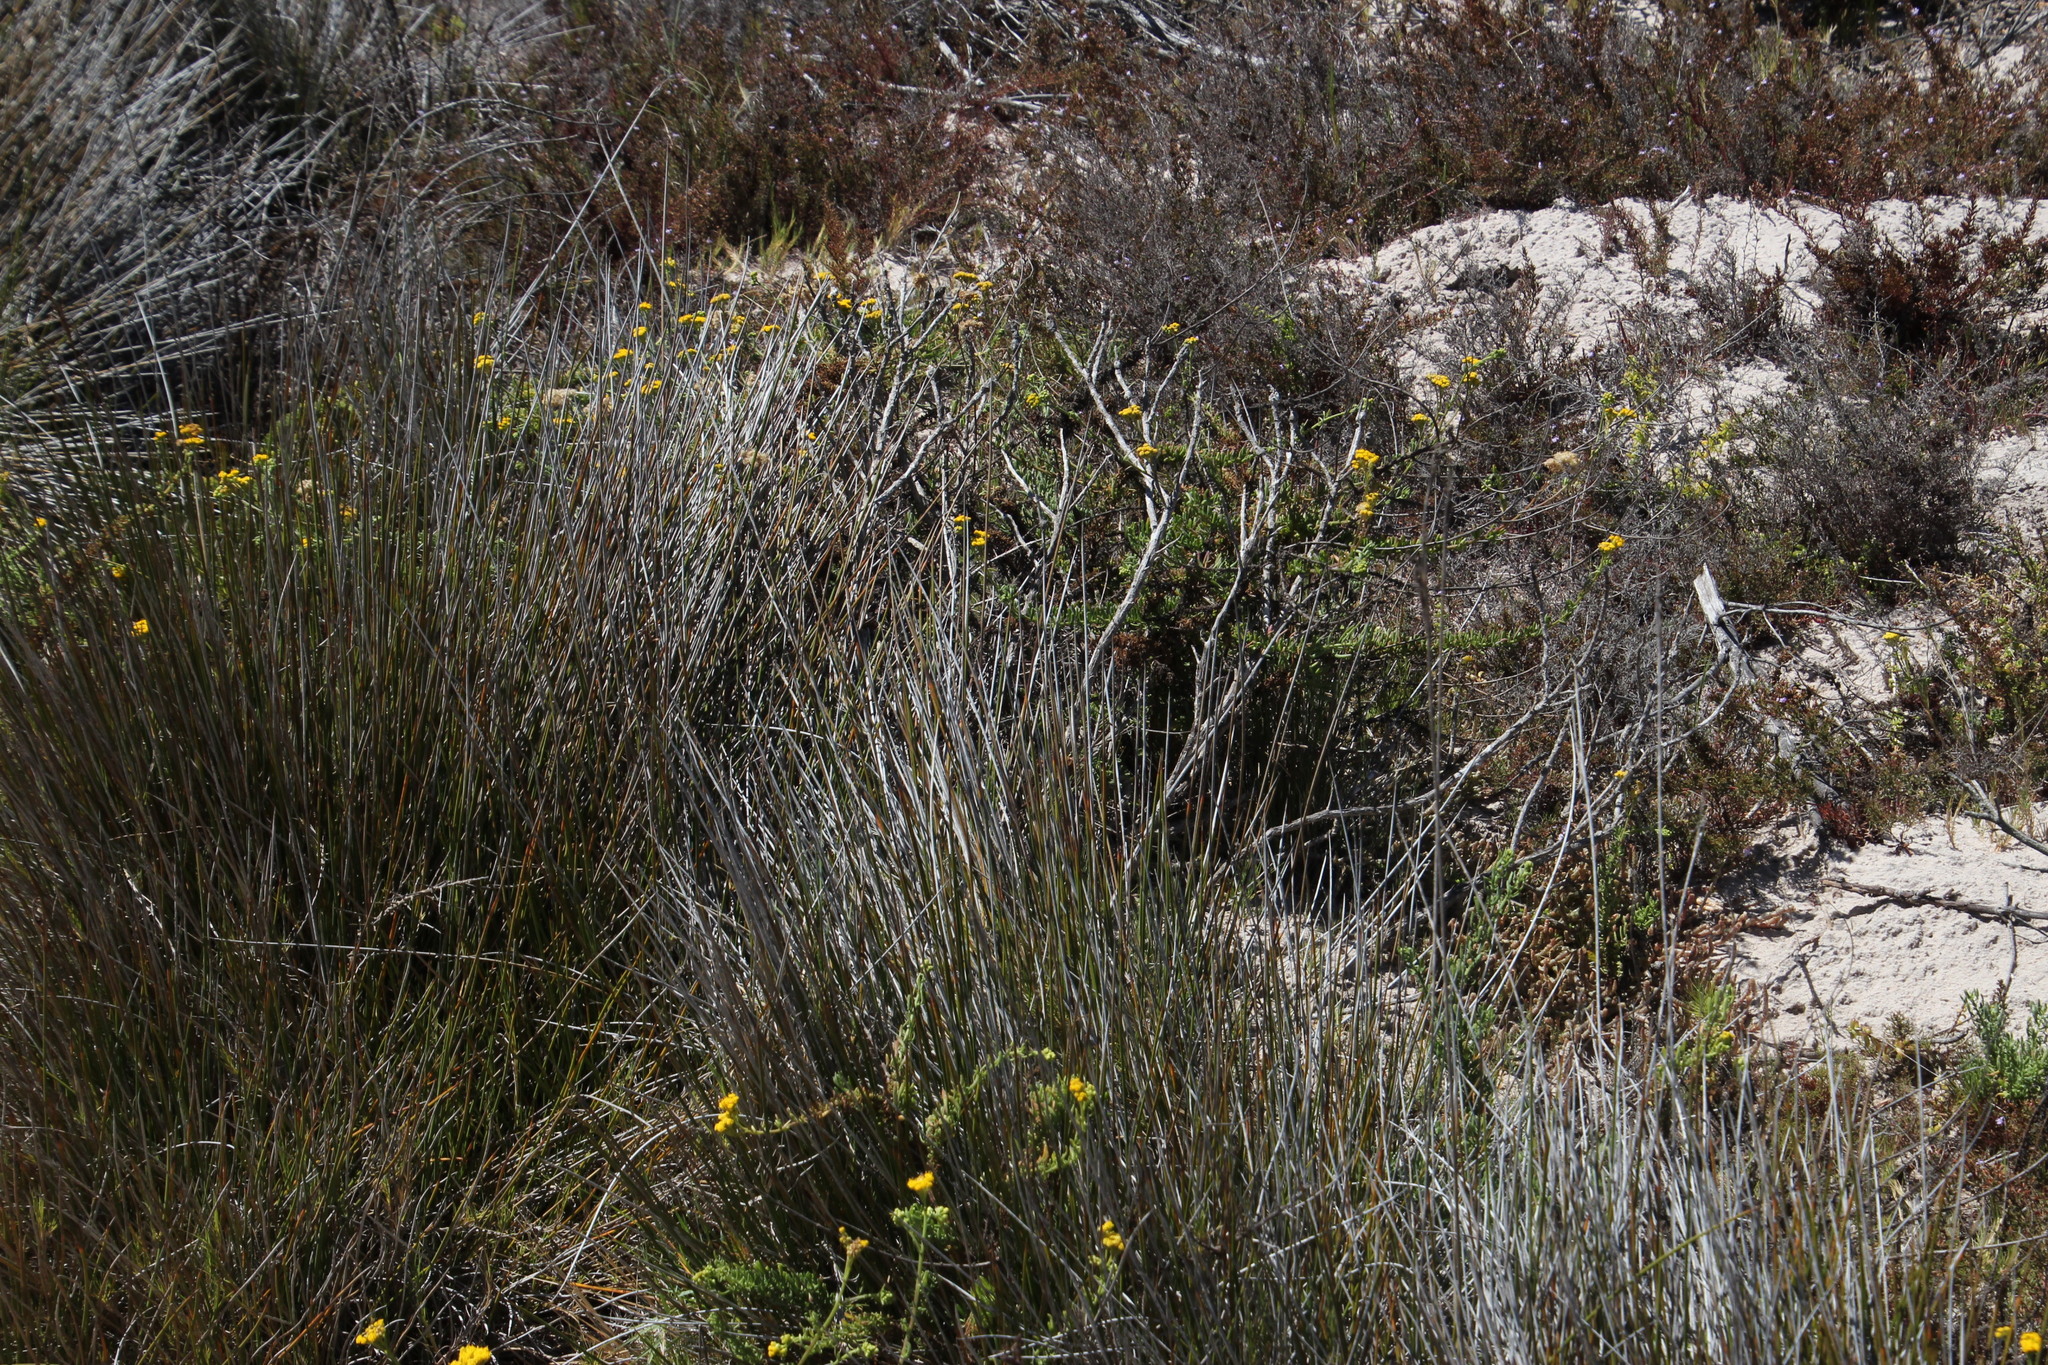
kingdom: Plantae
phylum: Tracheophyta
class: Magnoliopsida
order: Asterales
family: Asteraceae
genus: Nidorella
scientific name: Nidorella foetida
